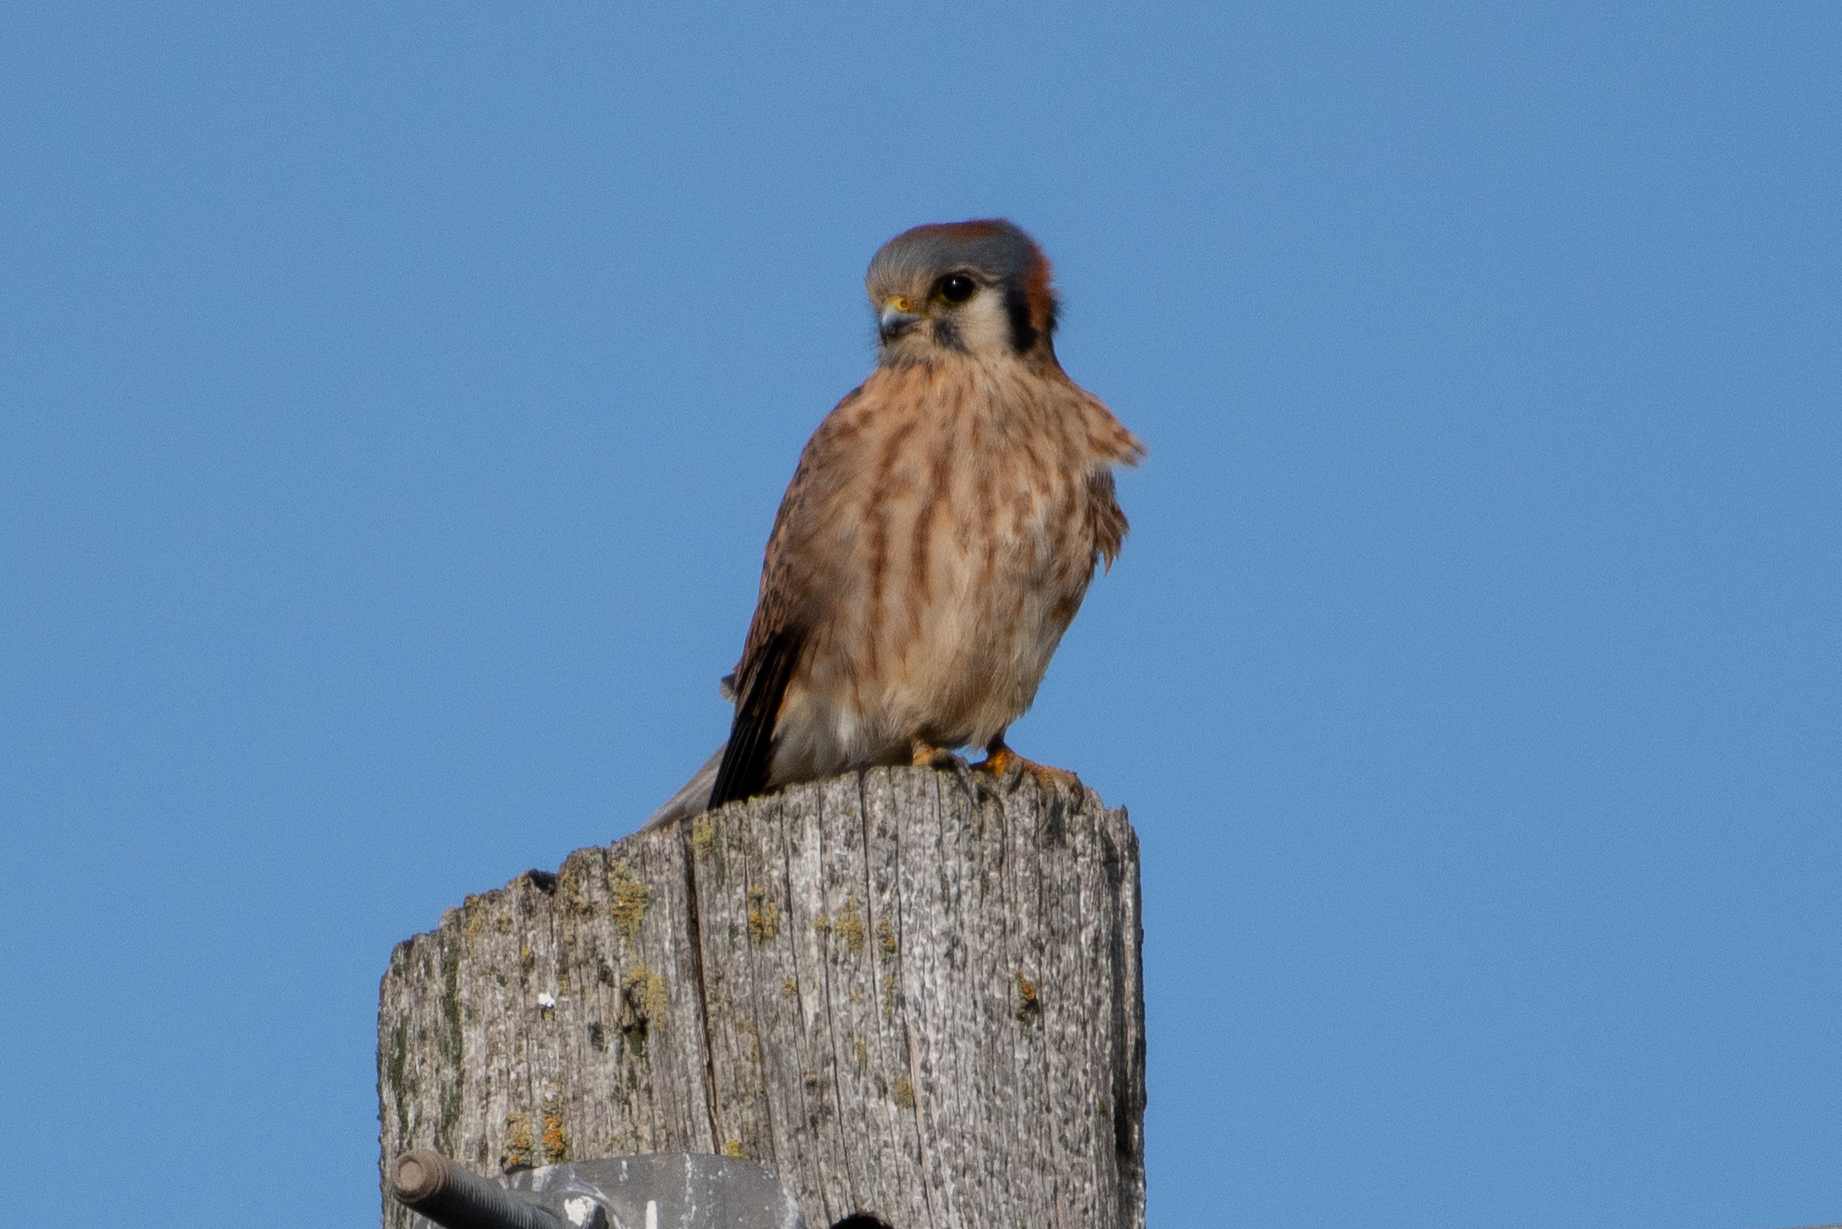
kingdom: Animalia
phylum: Chordata
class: Aves
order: Falconiformes
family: Falconidae
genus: Falco
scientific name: Falco sparverius
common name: American kestrel
